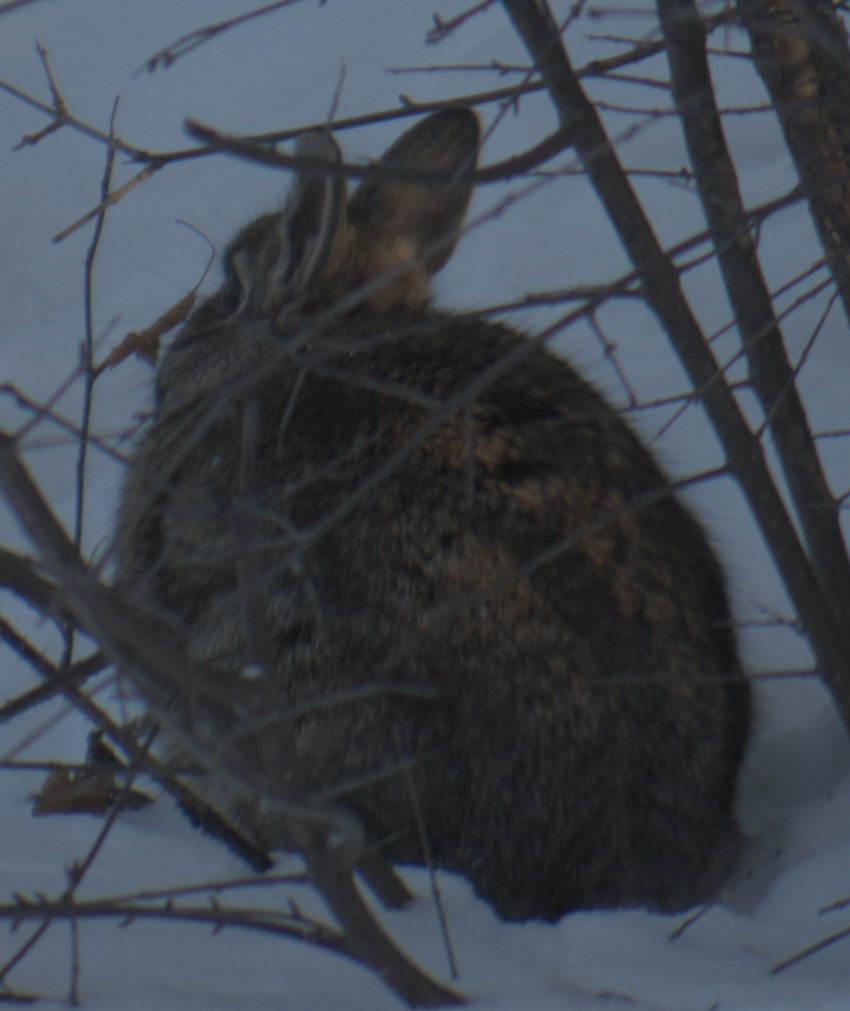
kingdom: Animalia
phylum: Chordata
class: Mammalia
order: Lagomorpha
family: Leporidae
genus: Sylvilagus
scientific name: Sylvilagus floridanus
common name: Eastern cottontail
